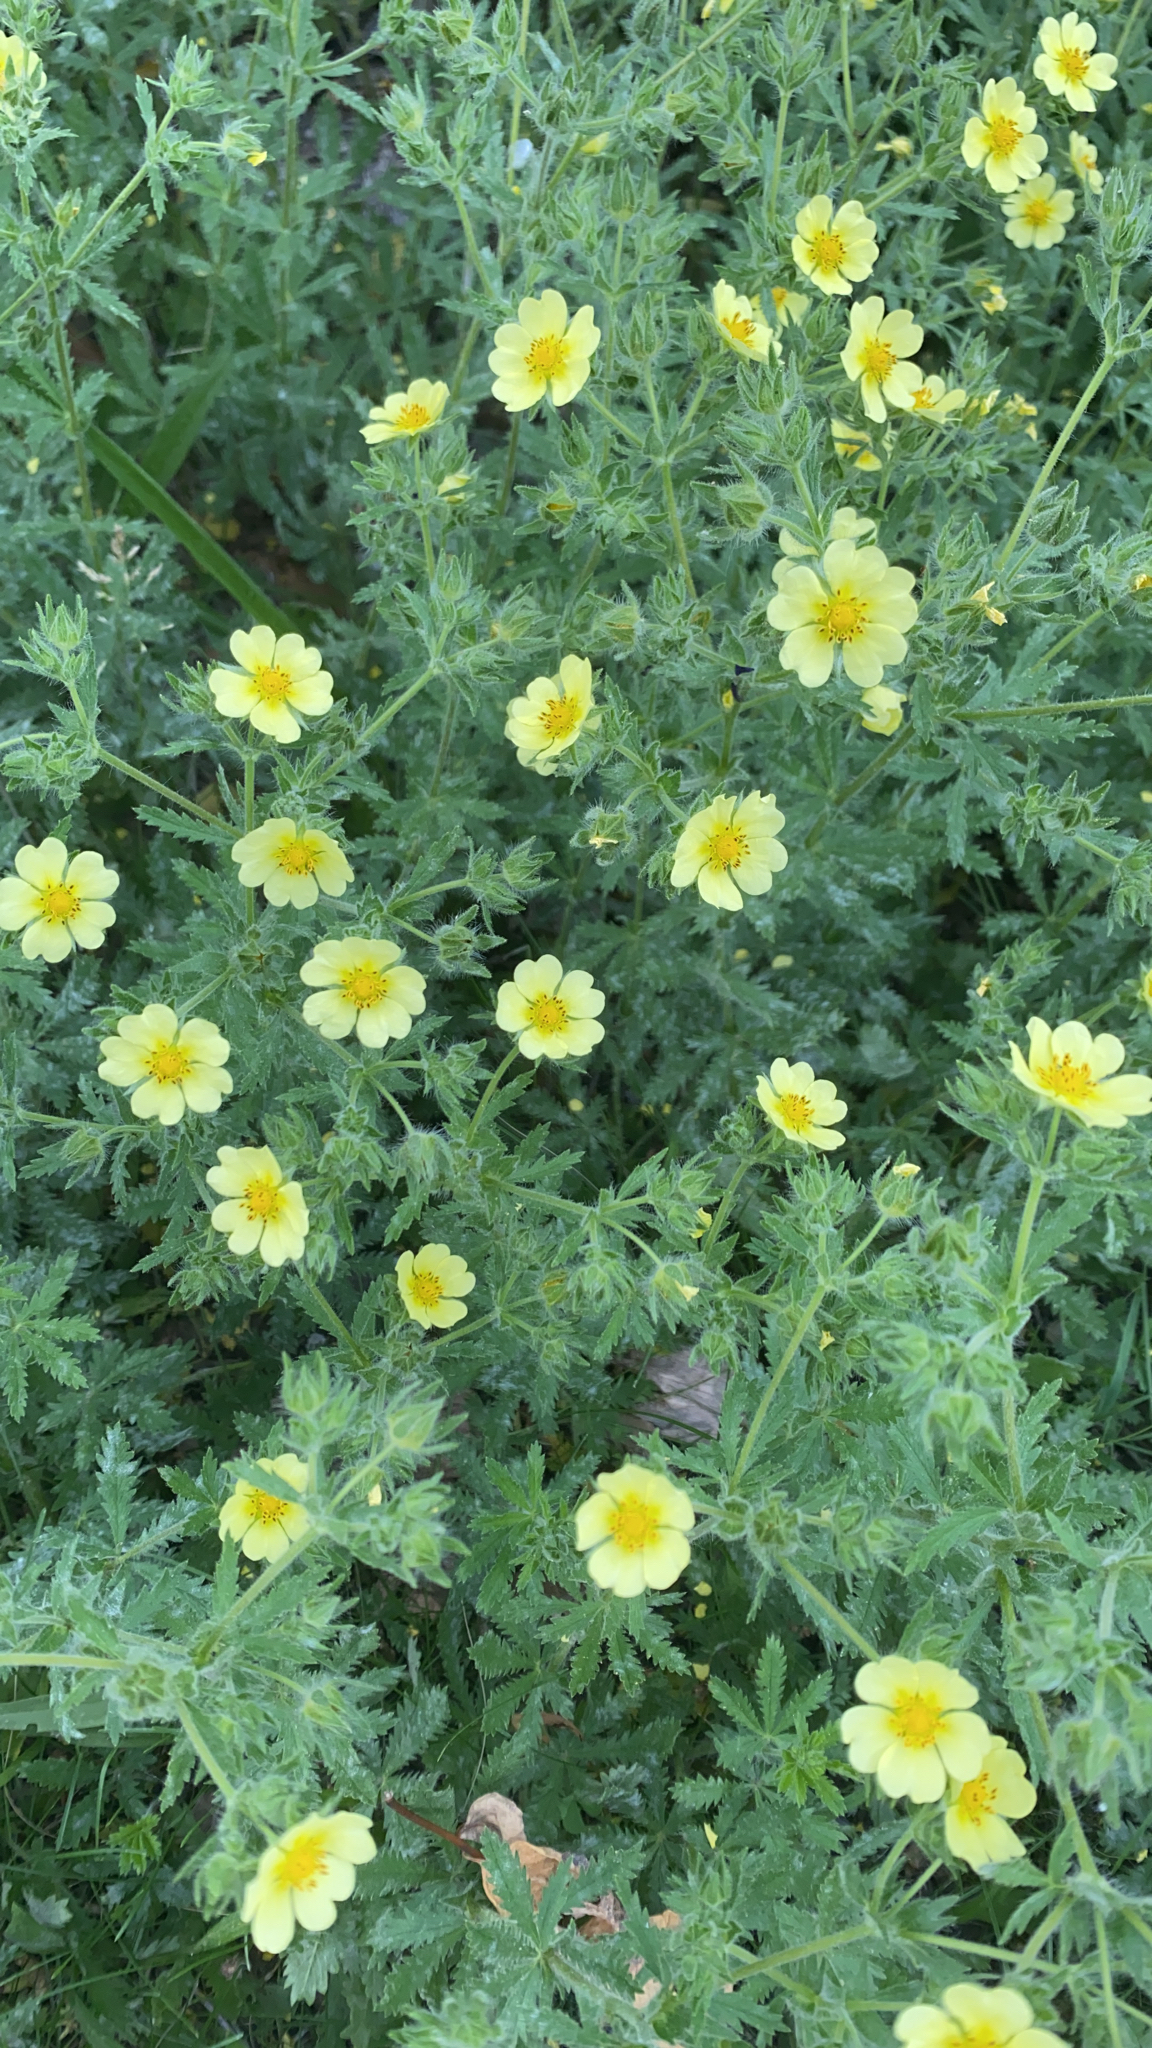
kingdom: Plantae
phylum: Tracheophyta
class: Magnoliopsida
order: Rosales
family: Rosaceae
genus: Potentilla
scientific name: Potentilla recta
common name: Sulphur cinquefoil
